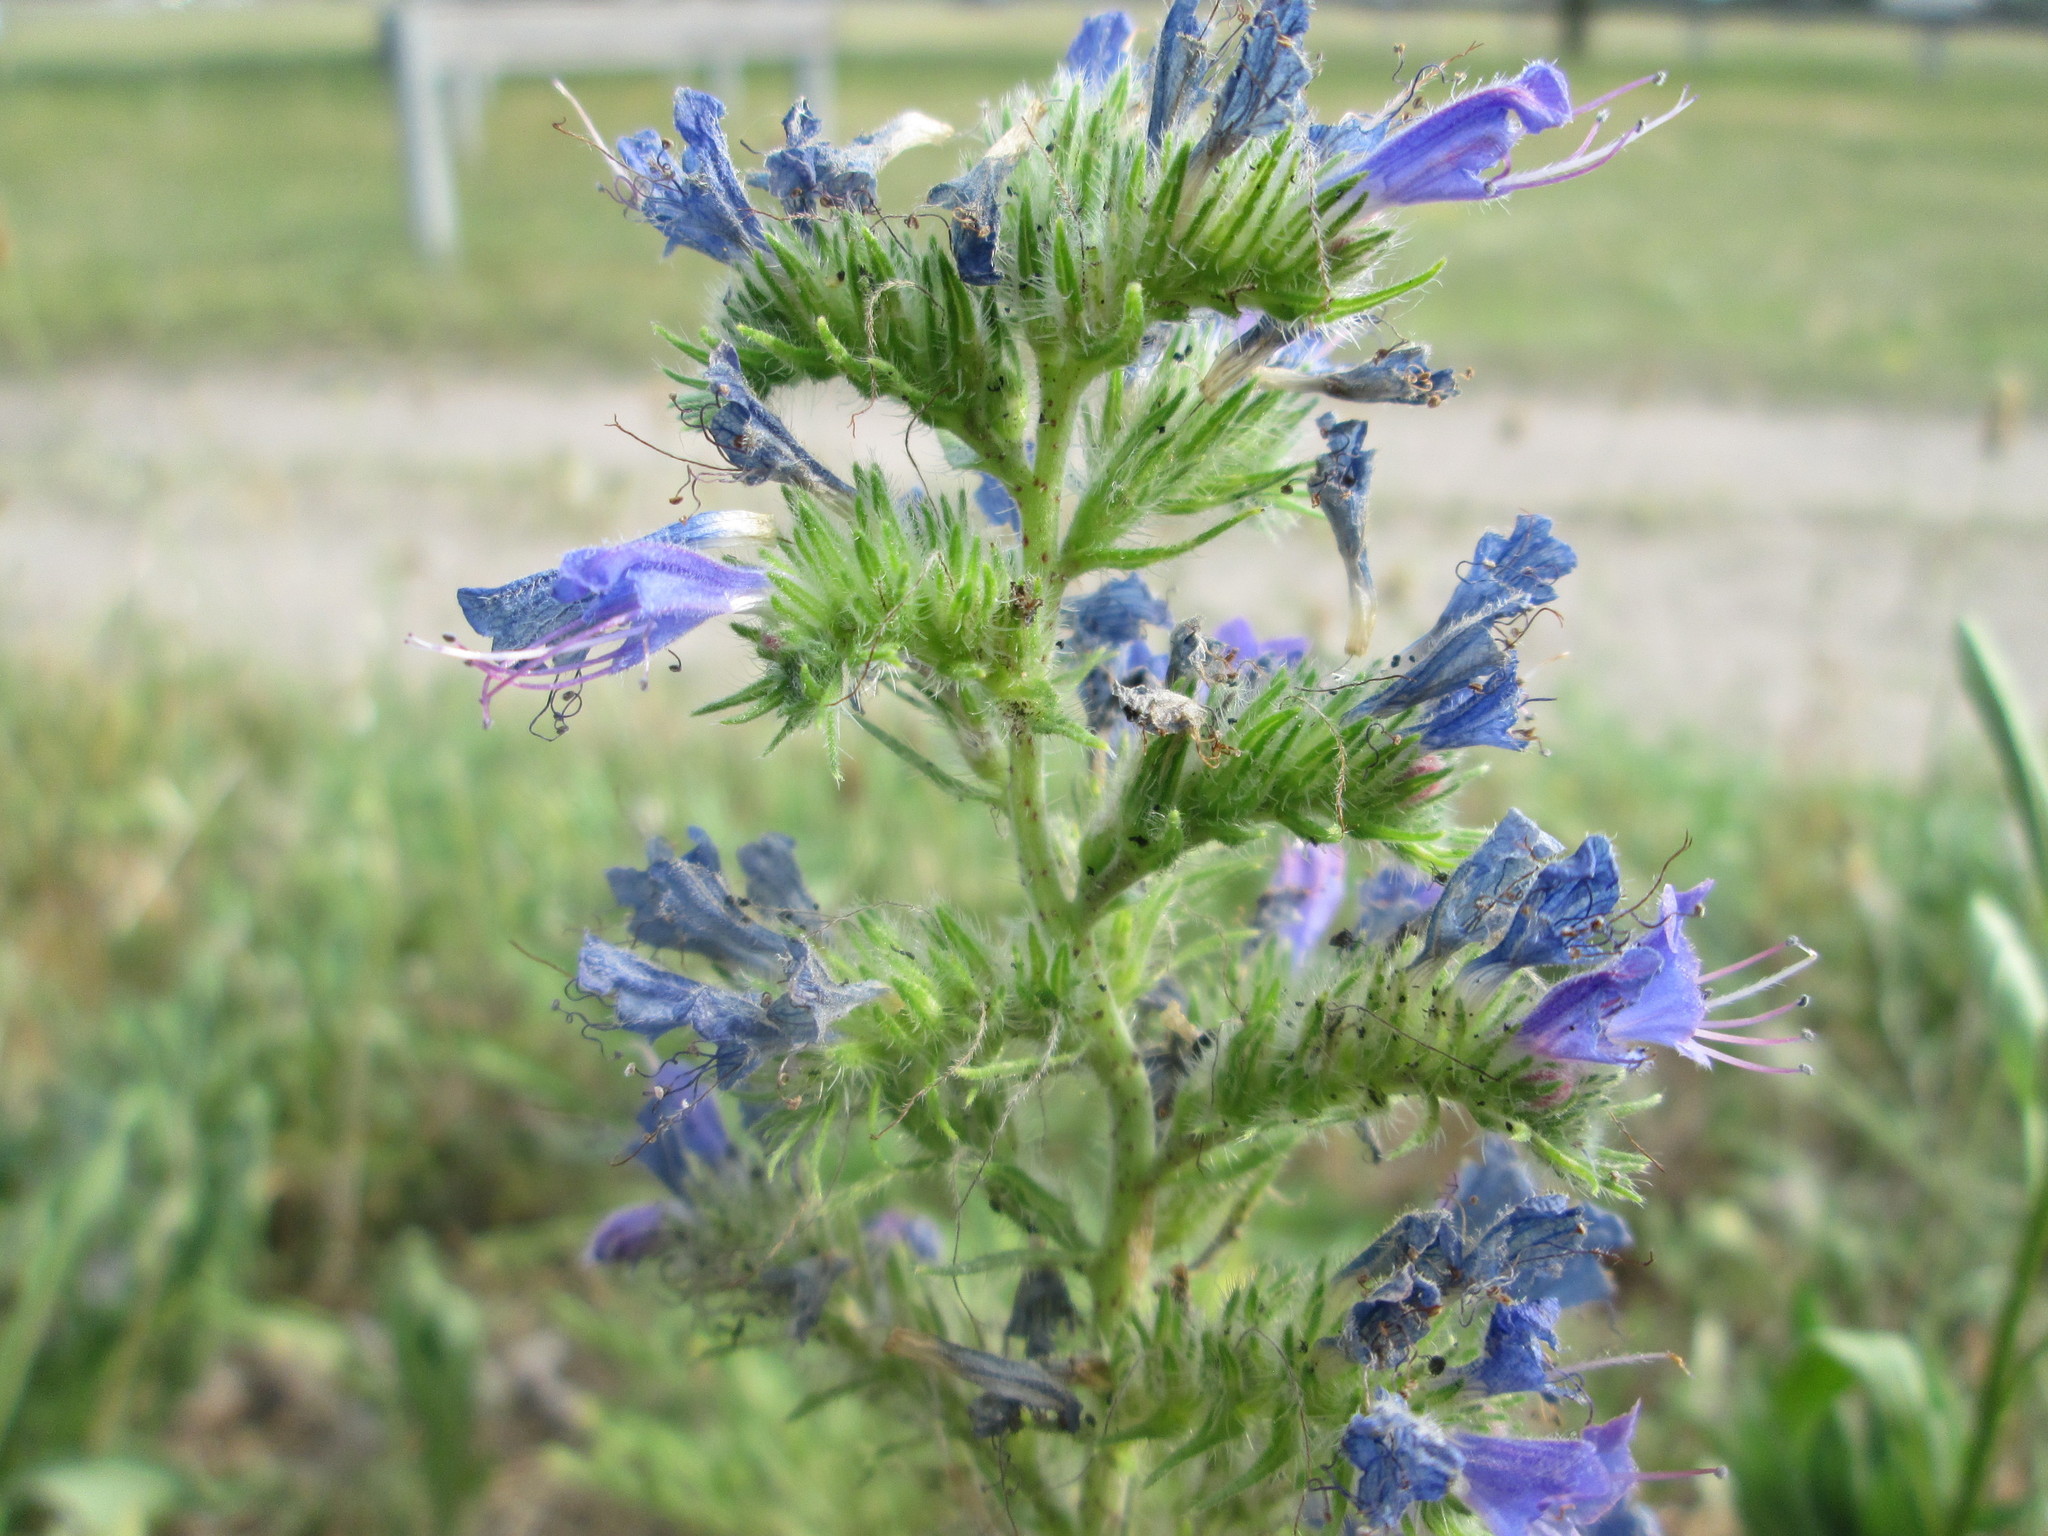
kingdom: Plantae
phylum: Tracheophyta
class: Magnoliopsida
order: Boraginales
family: Boraginaceae
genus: Echium
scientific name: Echium vulgare
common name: Common viper's bugloss
